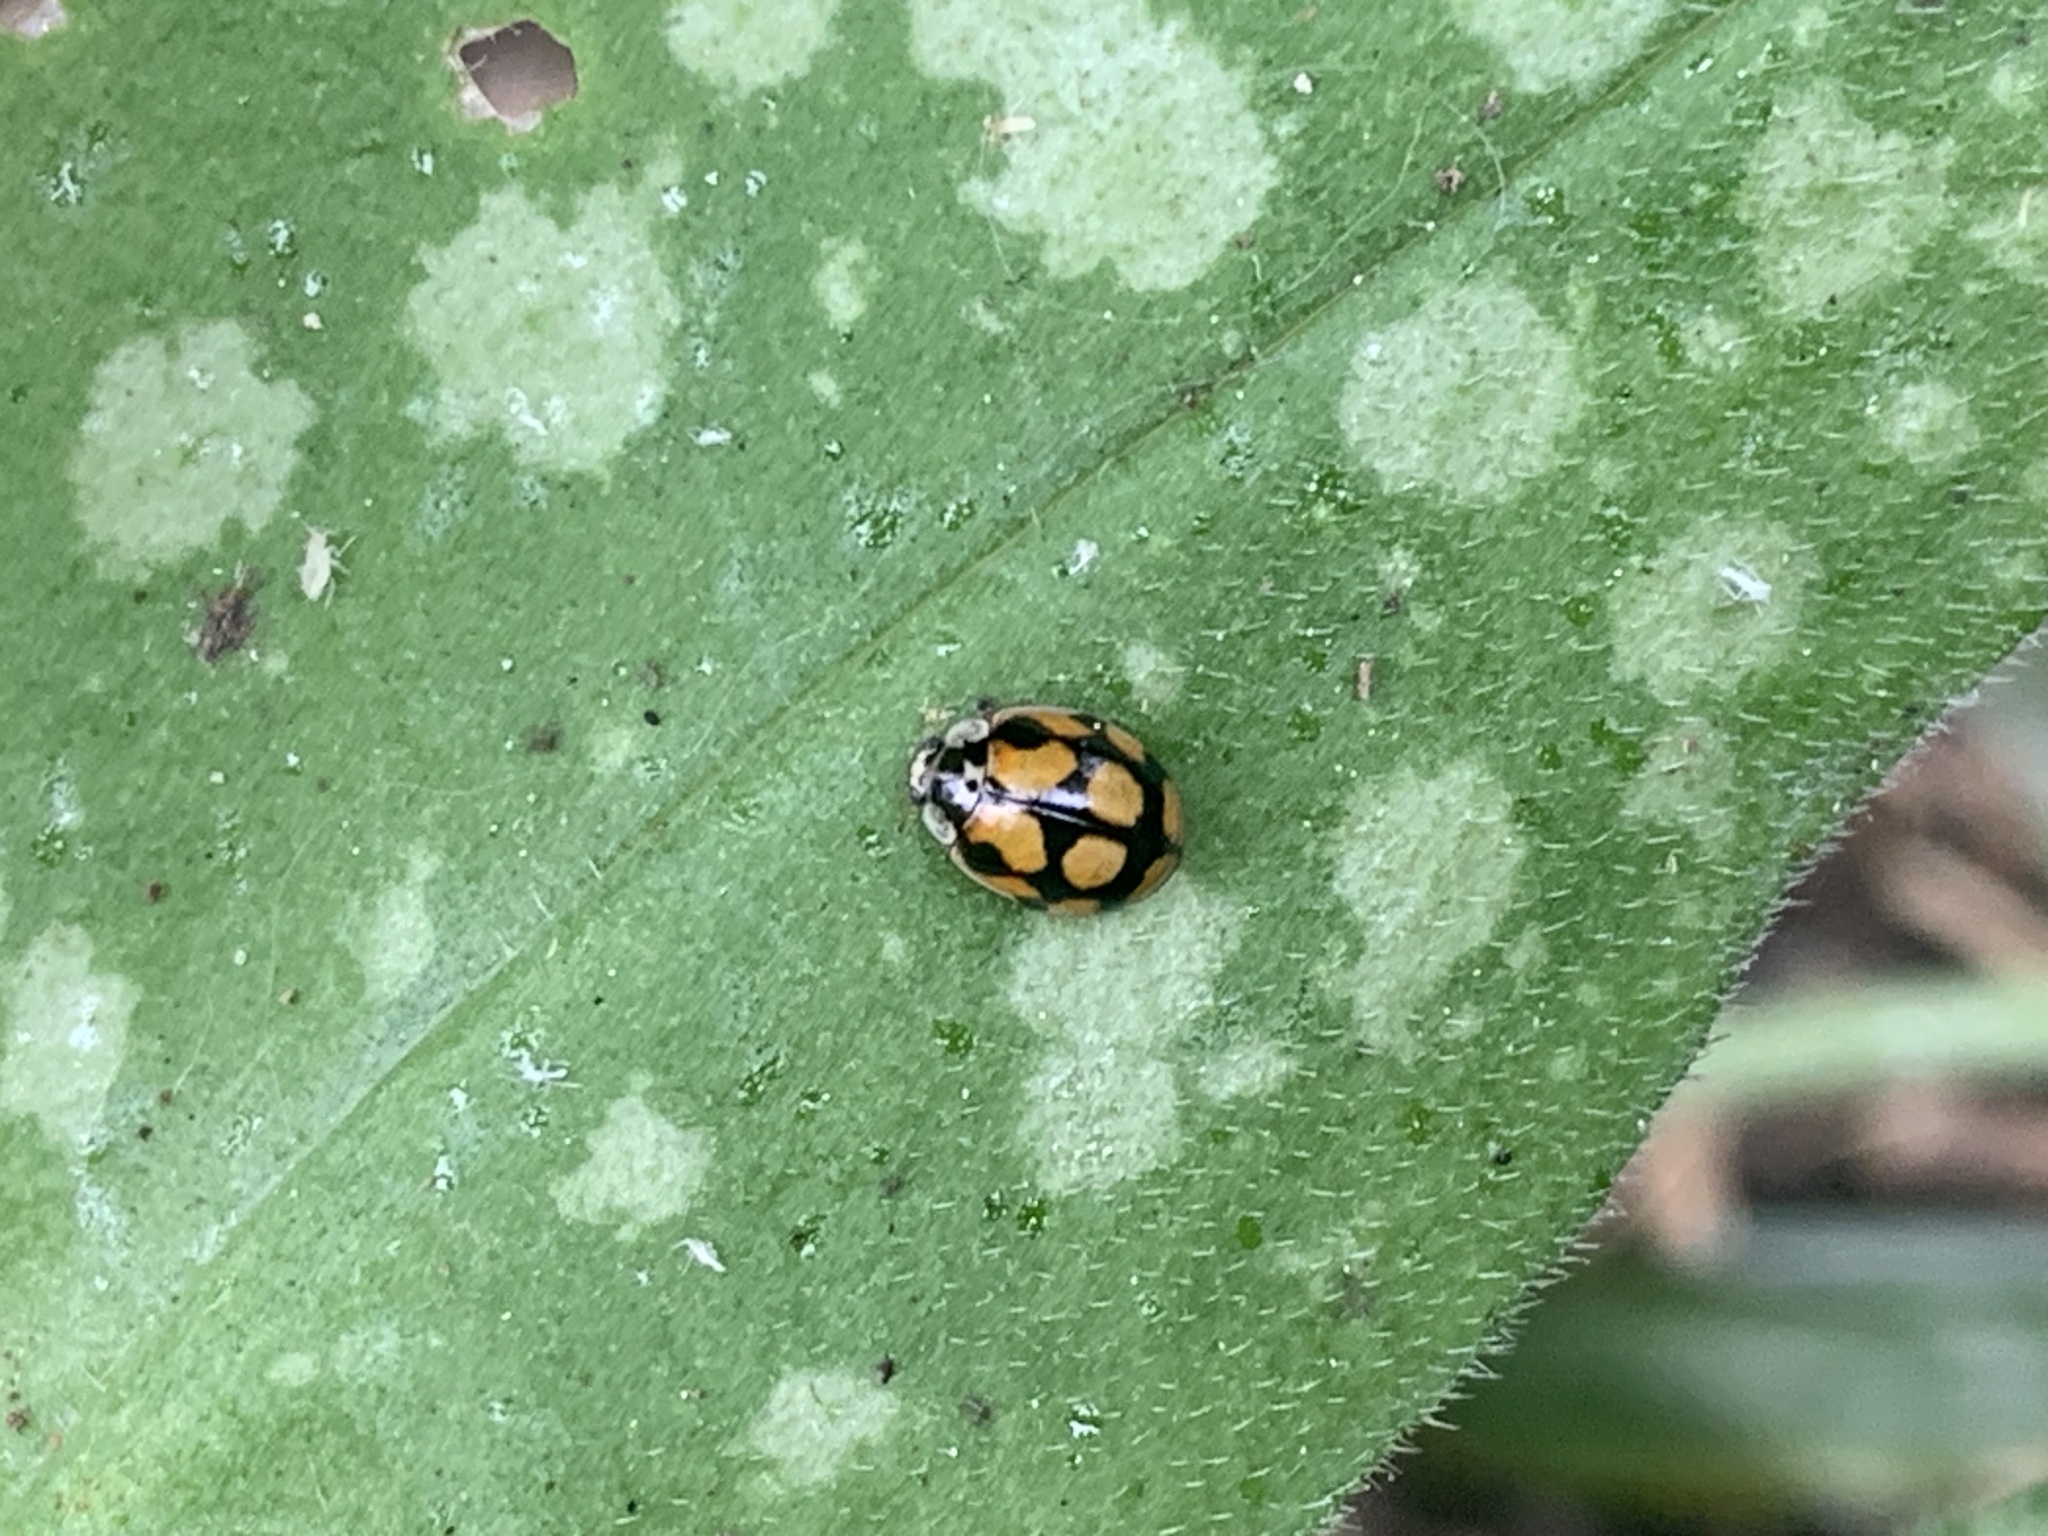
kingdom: Animalia
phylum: Arthropoda
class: Insecta
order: Coleoptera
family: Coccinellidae
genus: Adalia
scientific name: Adalia decempunctata
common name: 10-spot ladybird
